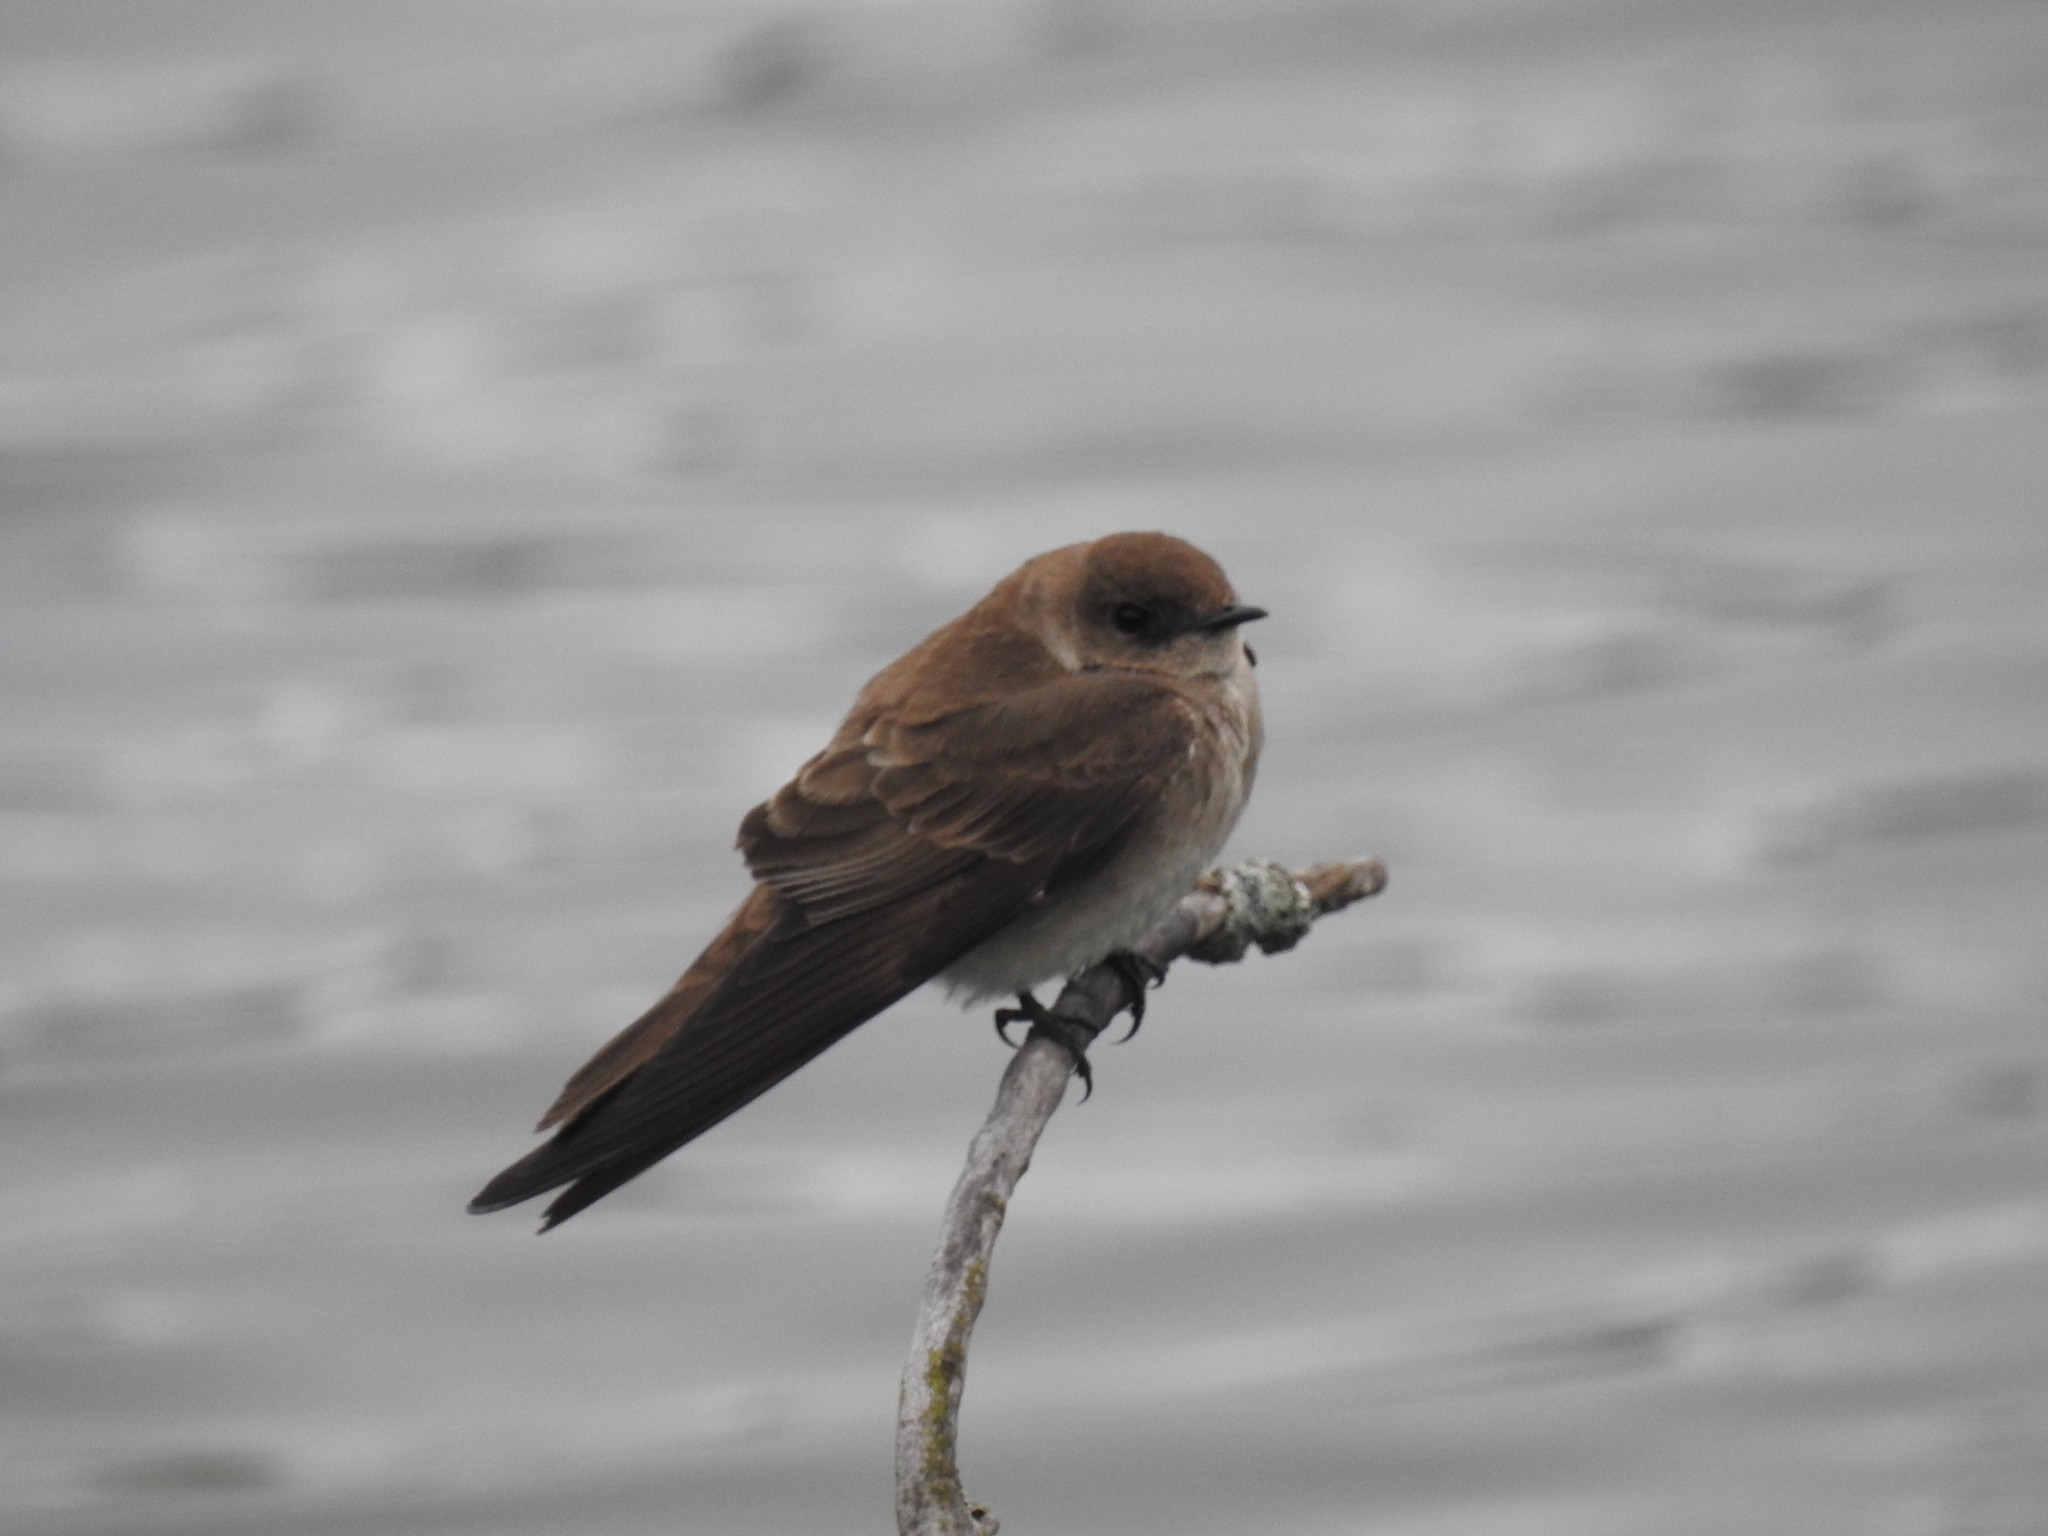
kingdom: Animalia
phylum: Chordata
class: Aves
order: Passeriformes
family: Hirundinidae
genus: Stelgidopteryx
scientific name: Stelgidopteryx serripennis
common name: Northern rough-winged swallow
